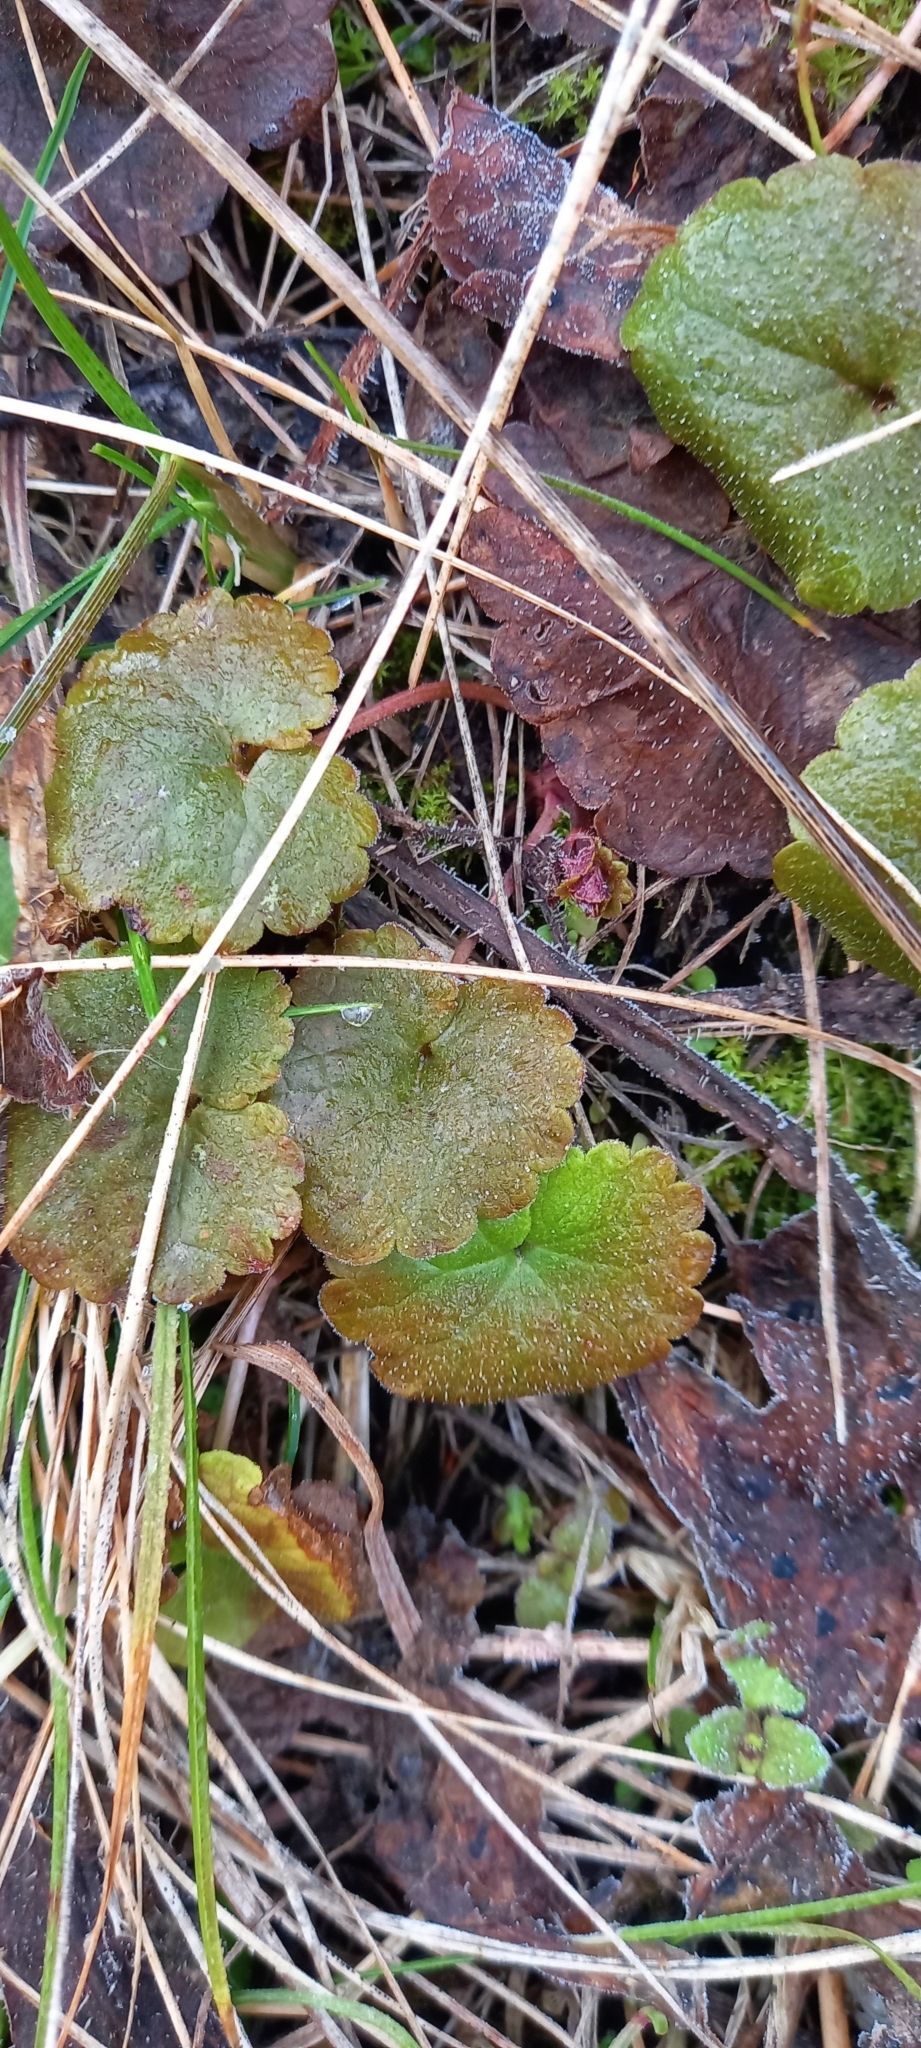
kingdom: Plantae
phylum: Tracheophyta
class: Magnoliopsida
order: Lamiales
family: Lamiaceae
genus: Glechoma
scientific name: Glechoma hederacea
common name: Ground ivy
